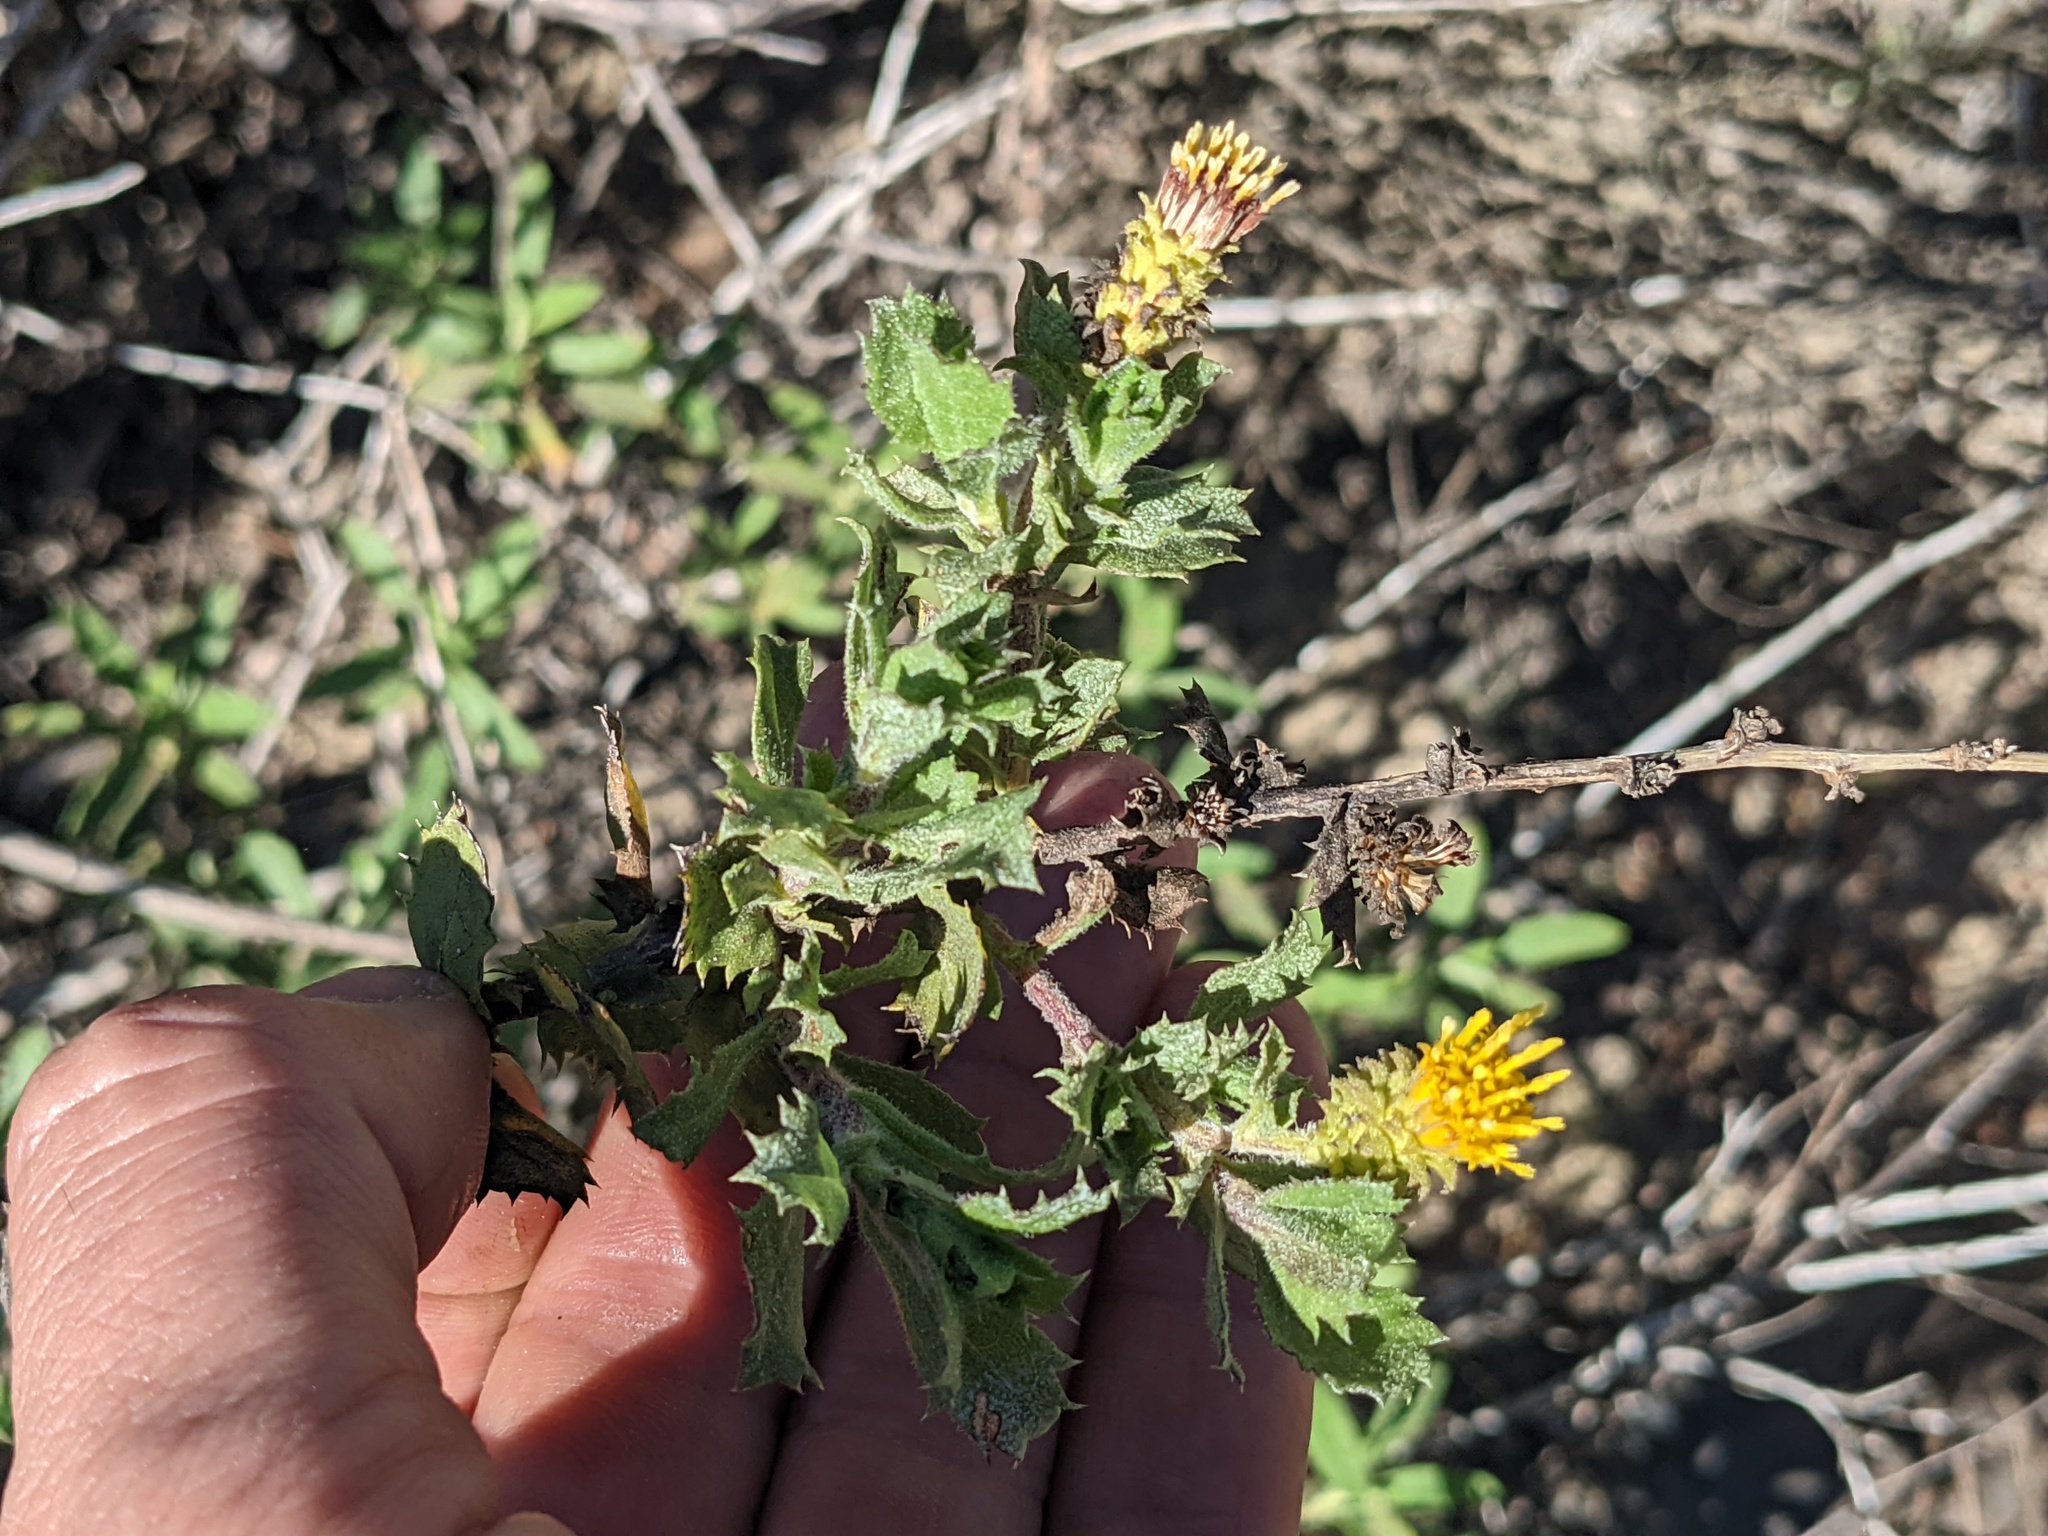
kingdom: Plantae
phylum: Tracheophyta
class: Magnoliopsida
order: Asterales
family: Asteraceae
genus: Hazardia
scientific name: Hazardia squarrosa
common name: Saw-tooth goldenbush
